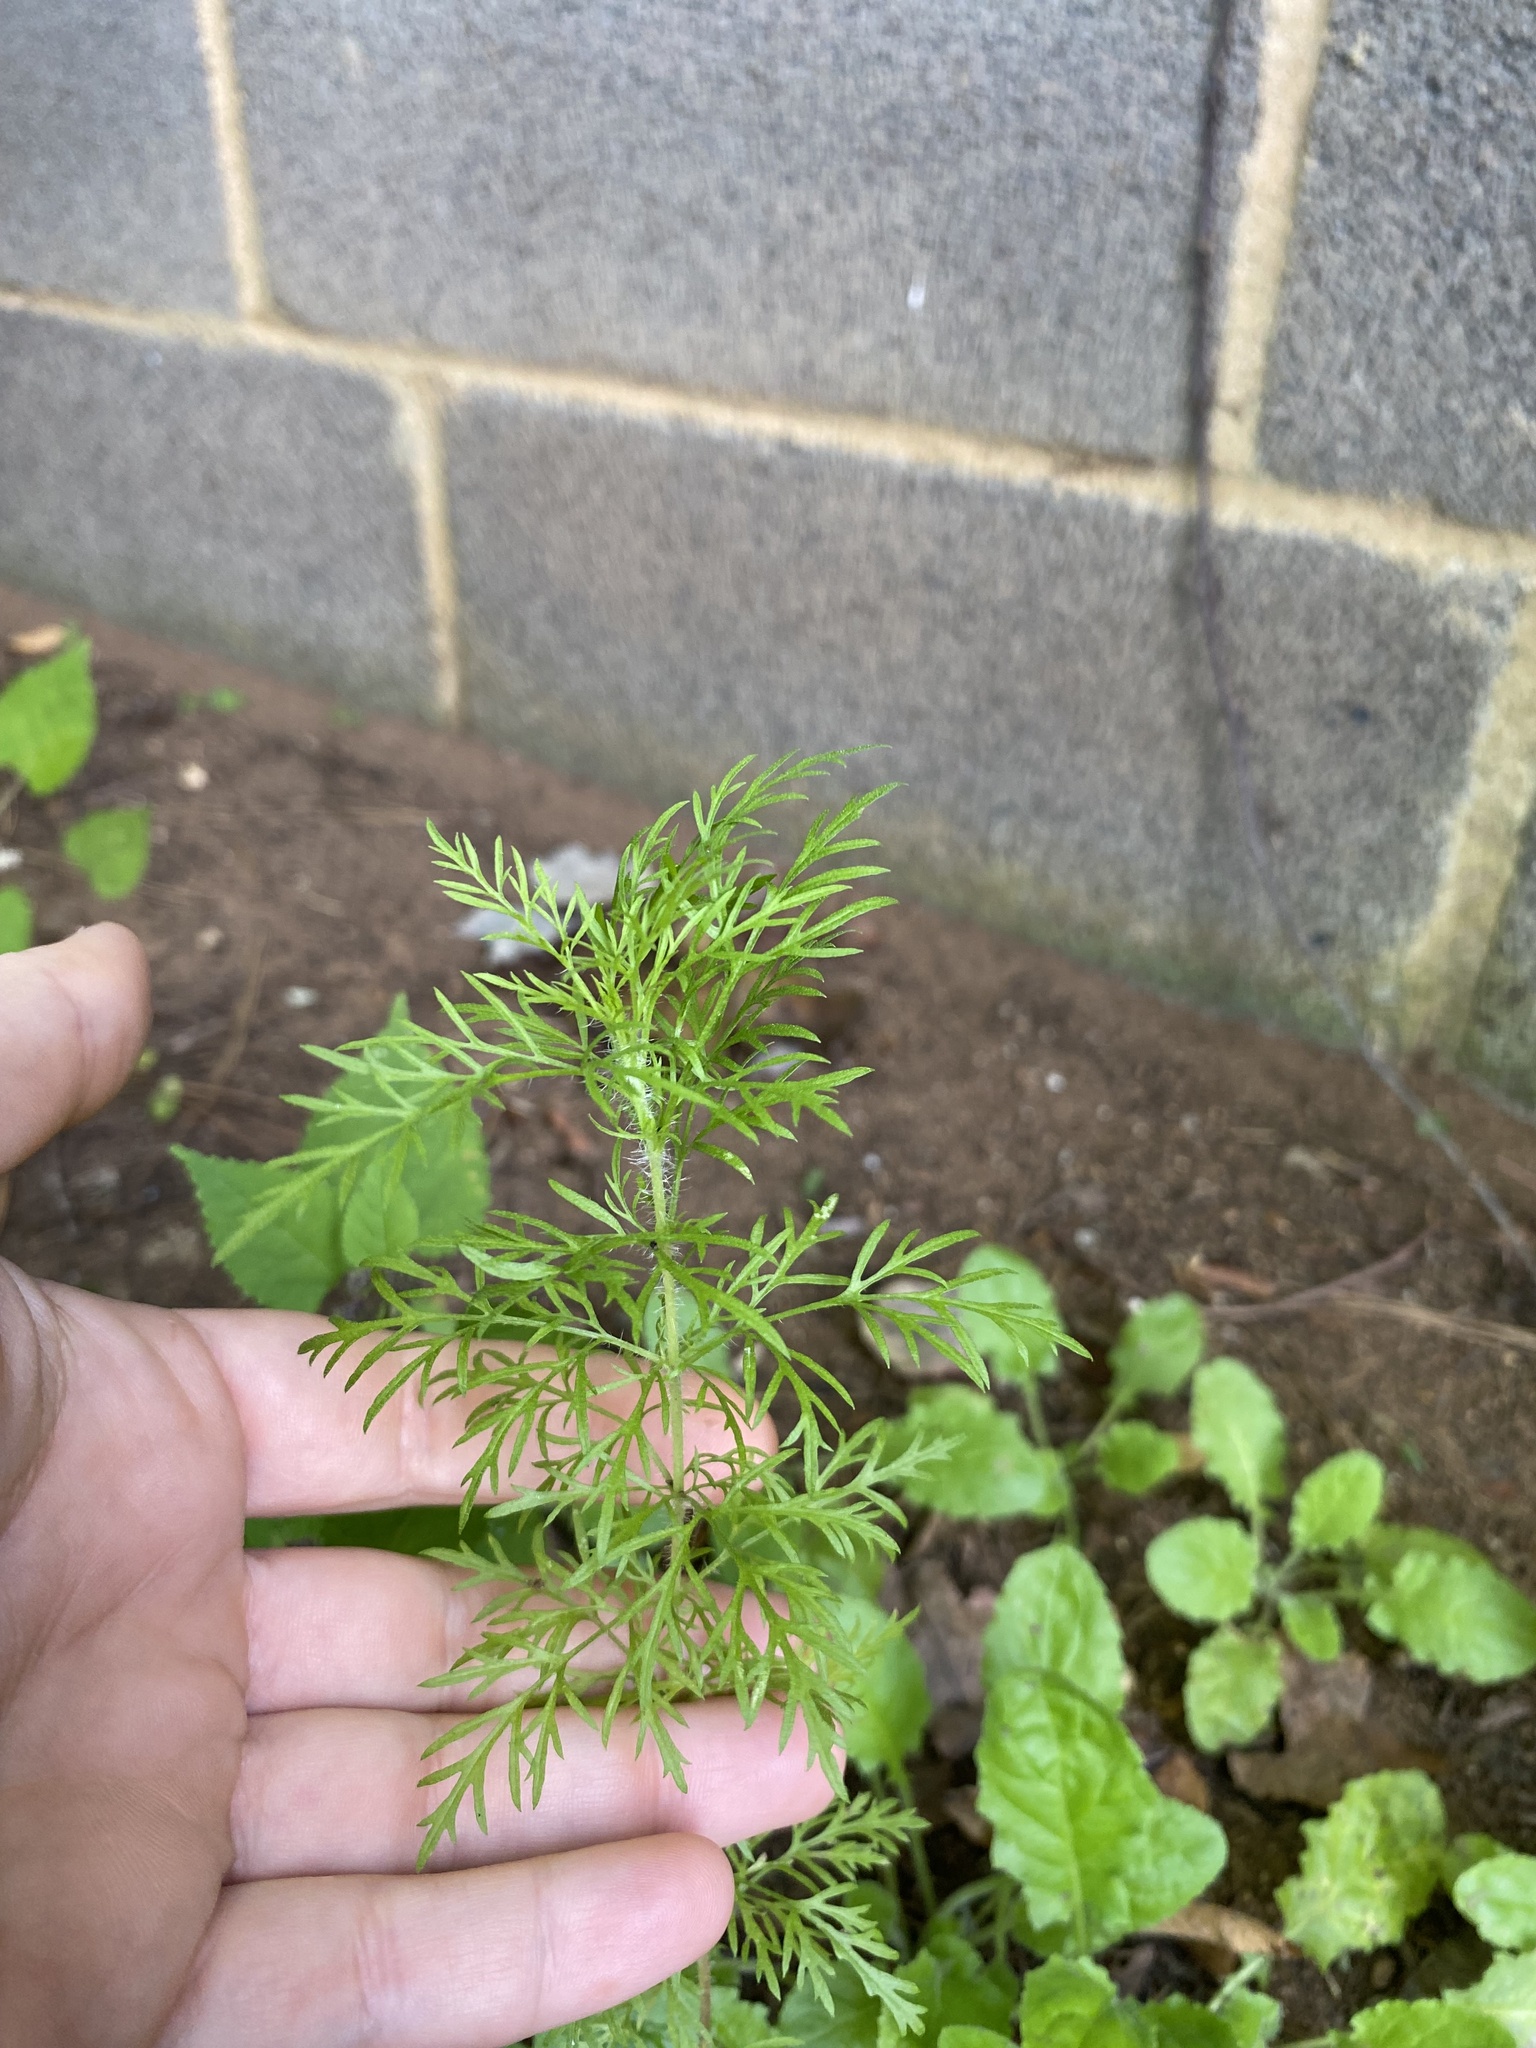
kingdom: Plantae
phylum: Tracheophyta
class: Magnoliopsida
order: Asterales
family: Asteraceae
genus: Eupatorium
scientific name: Eupatorium capillifolium
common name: Dog-fennel
